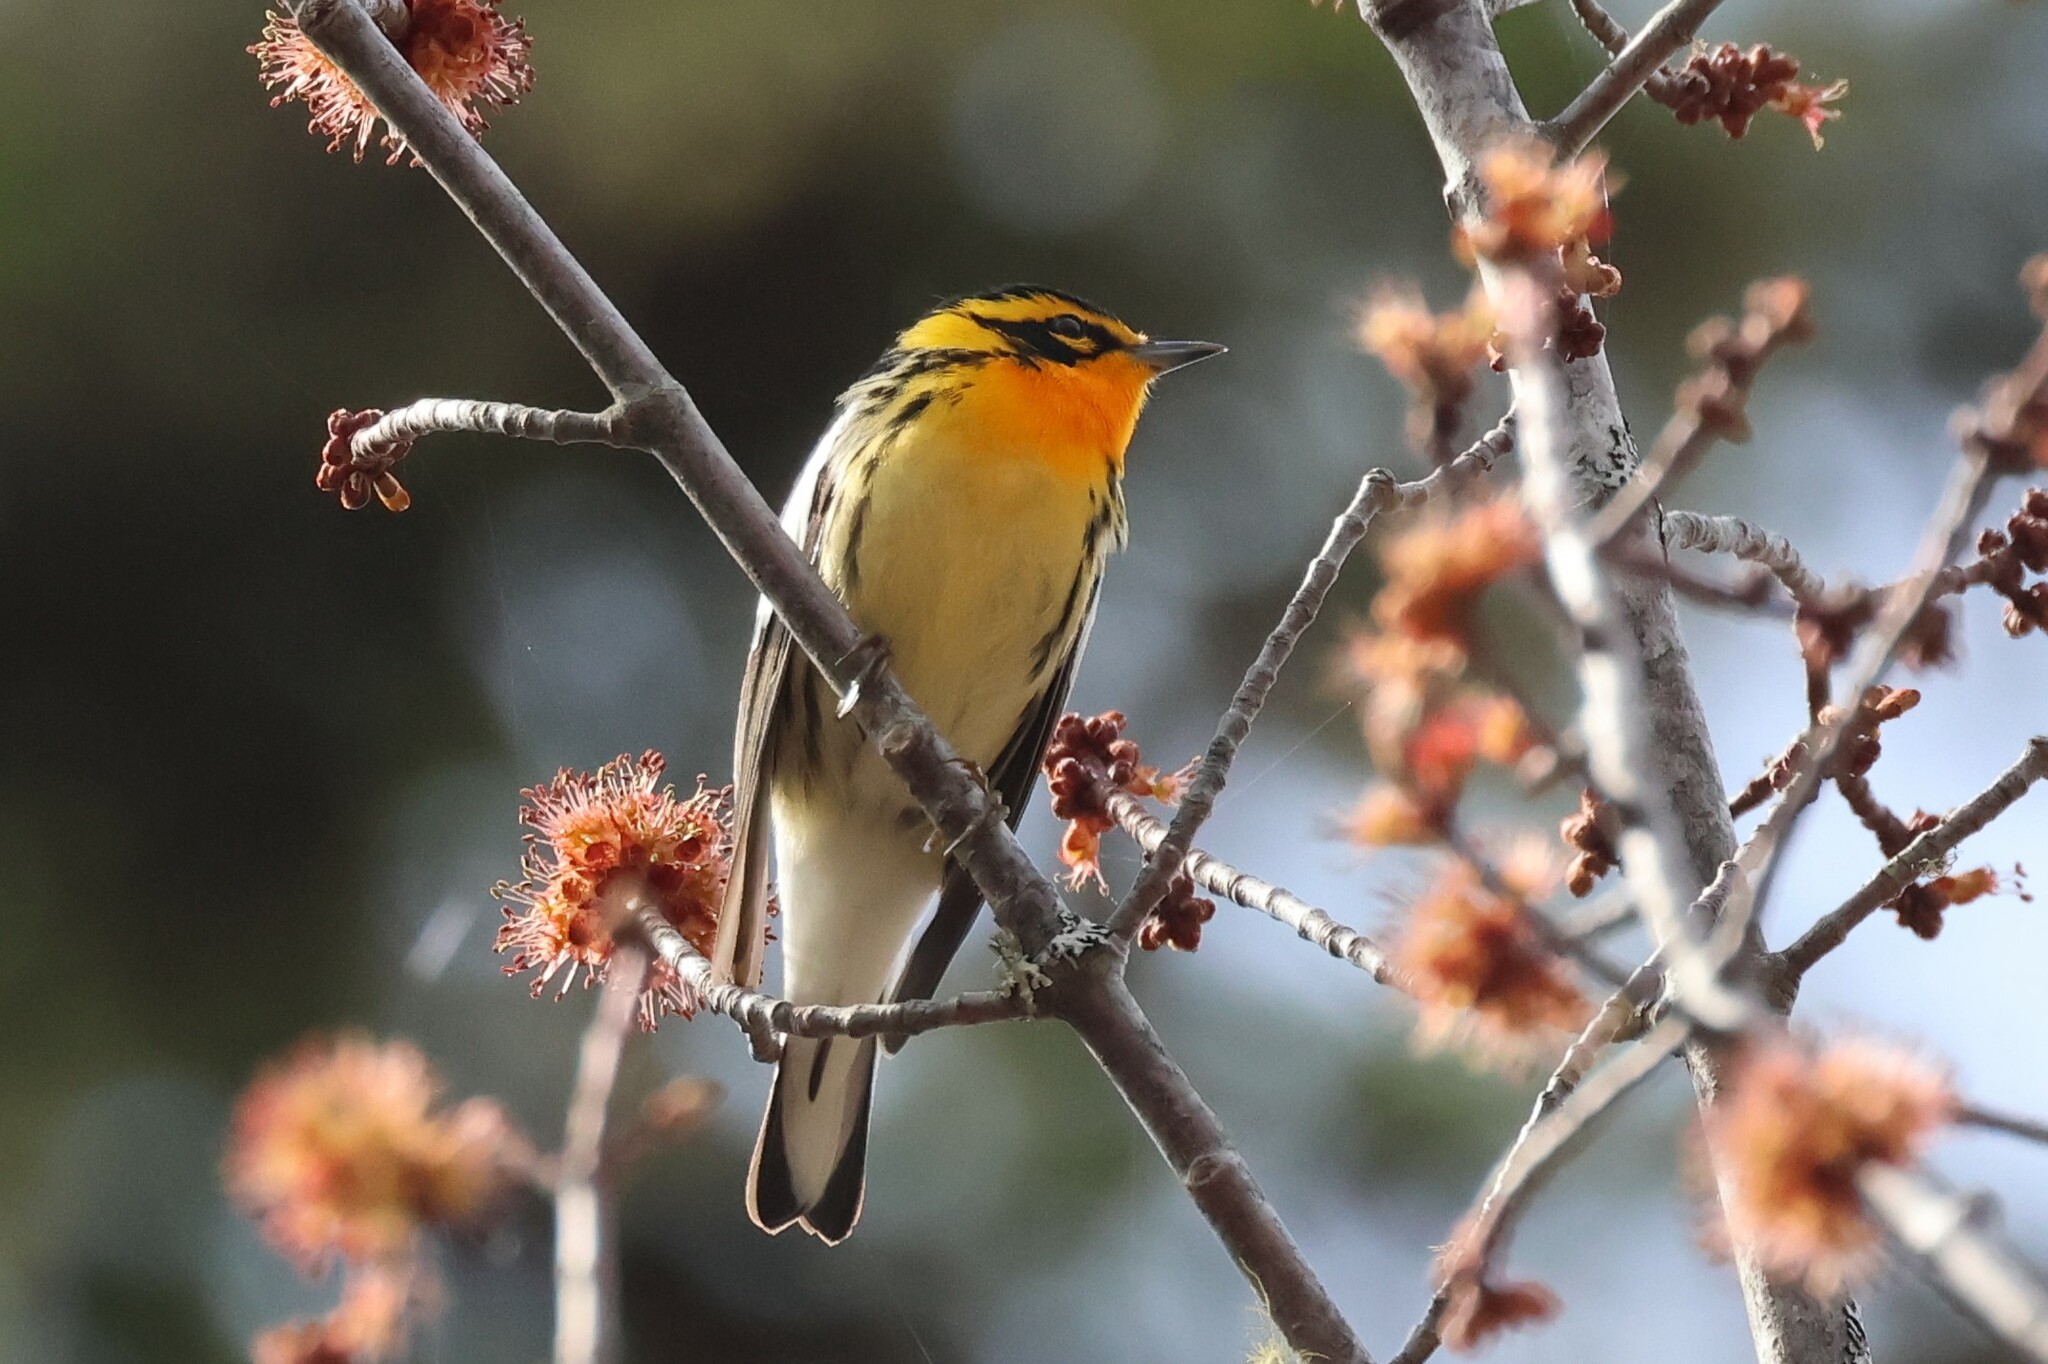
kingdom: Animalia
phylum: Chordata
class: Aves
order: Passeriformes
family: Parulidae
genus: Setophaga
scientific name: Setophaga fusca
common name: Blackburnian warbler
